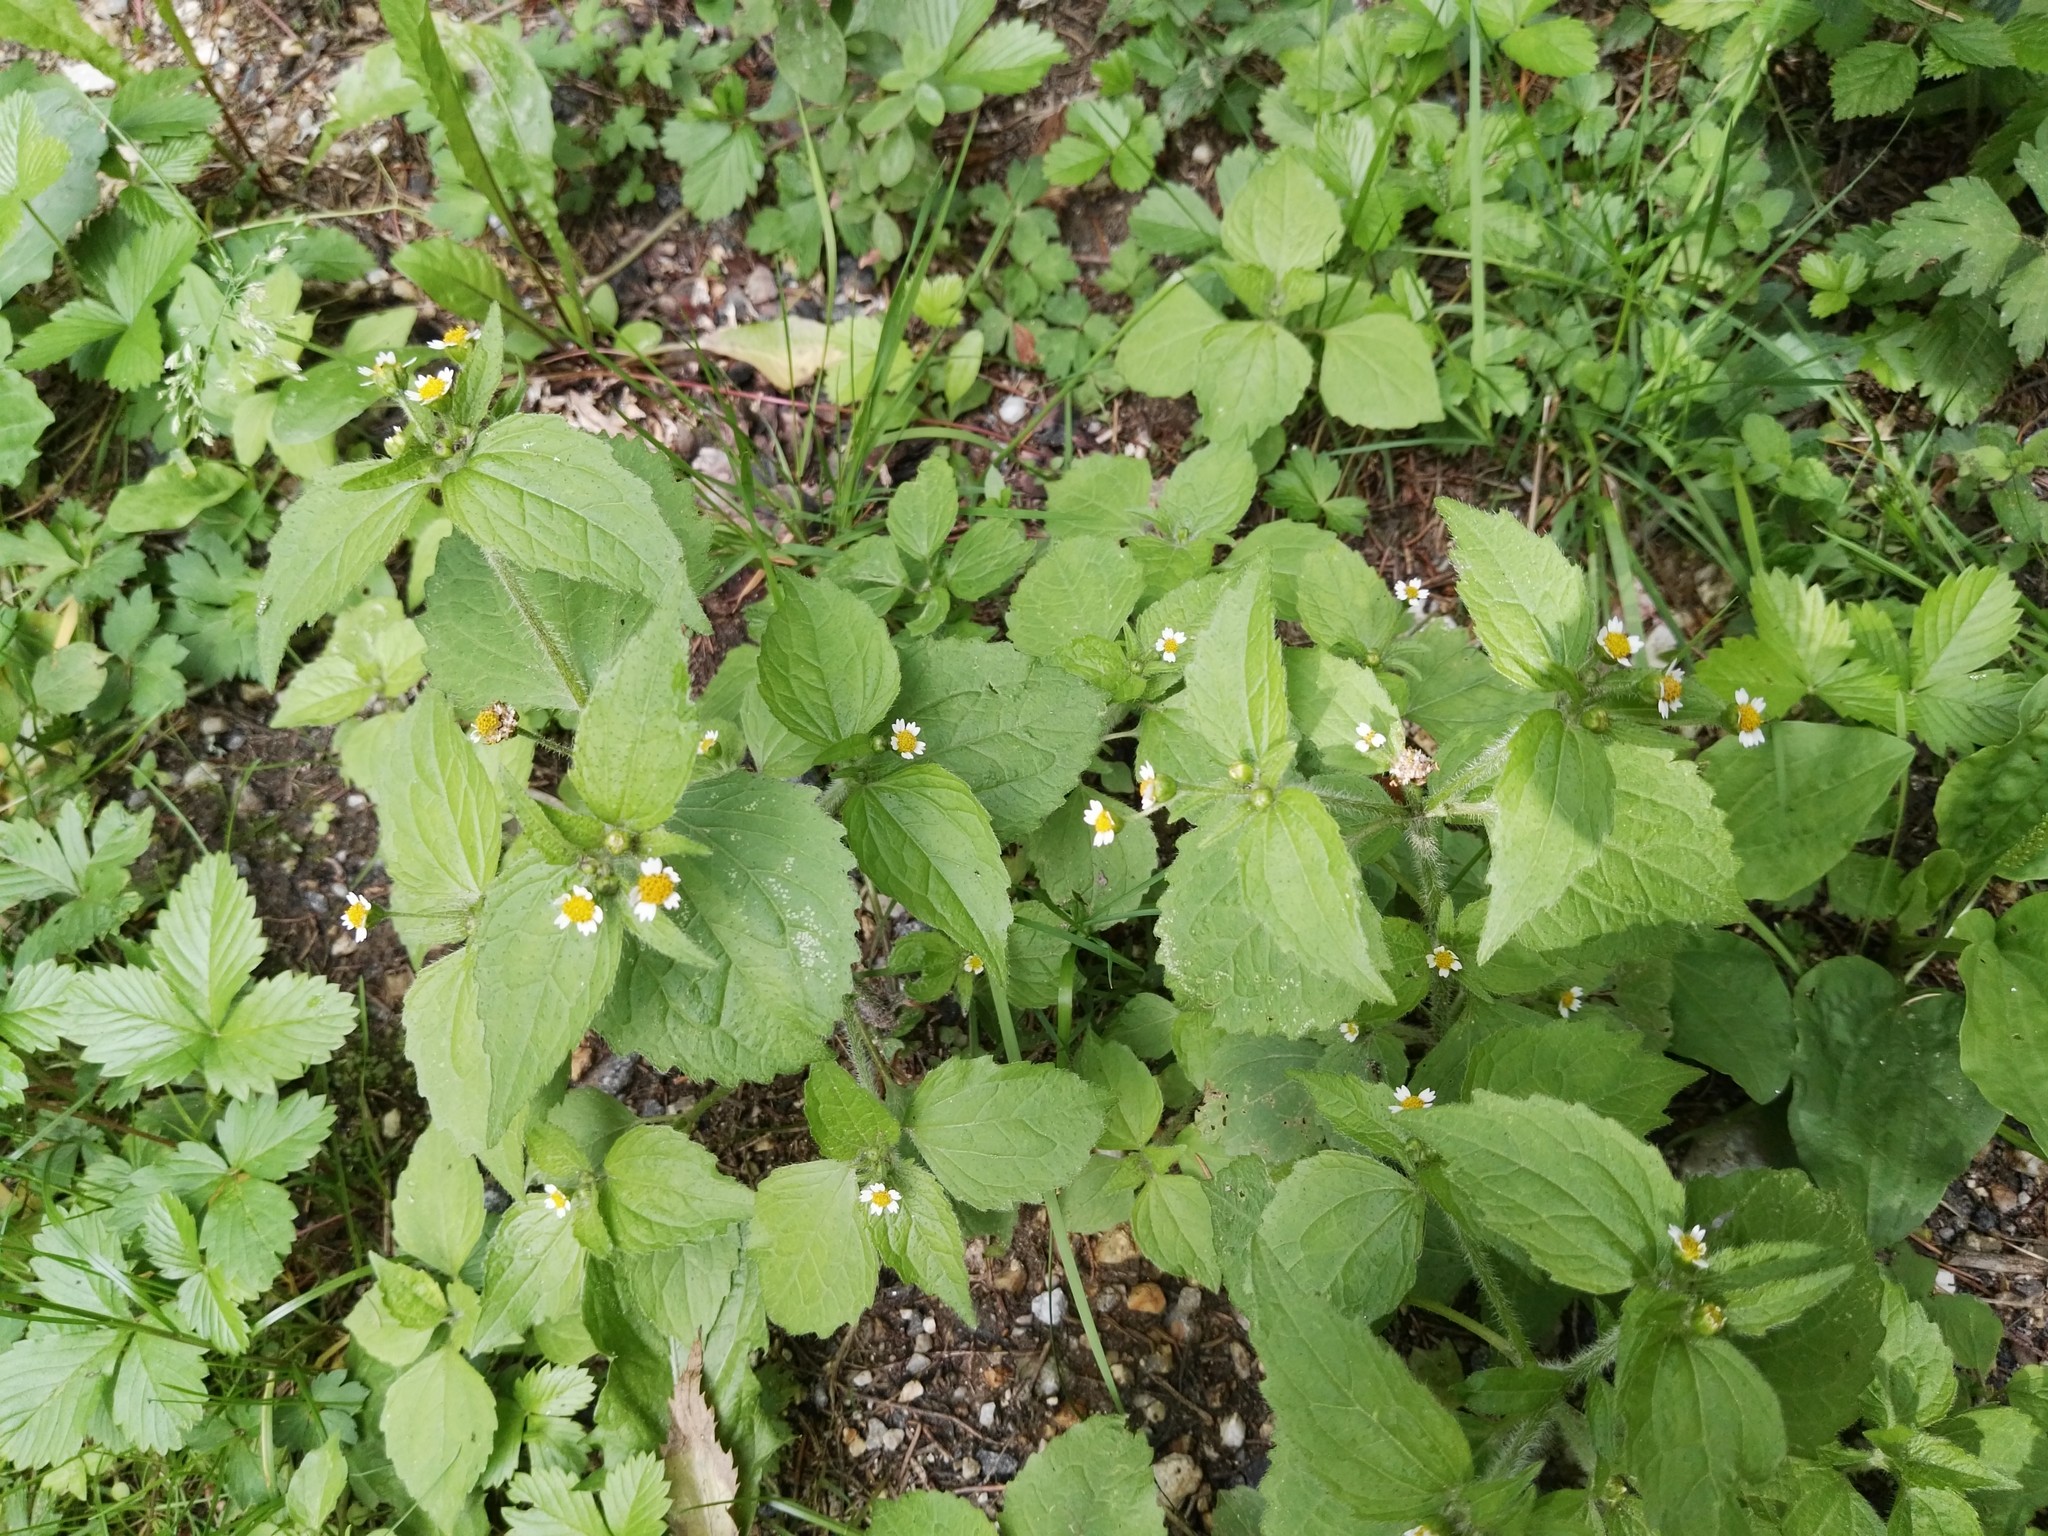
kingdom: Plantae
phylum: Tracheophyta
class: Magnoliopsida
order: Asterales
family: Asteraceae
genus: Galinsoga
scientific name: Galinsoga quadriradiata
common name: Shaggy soldier
